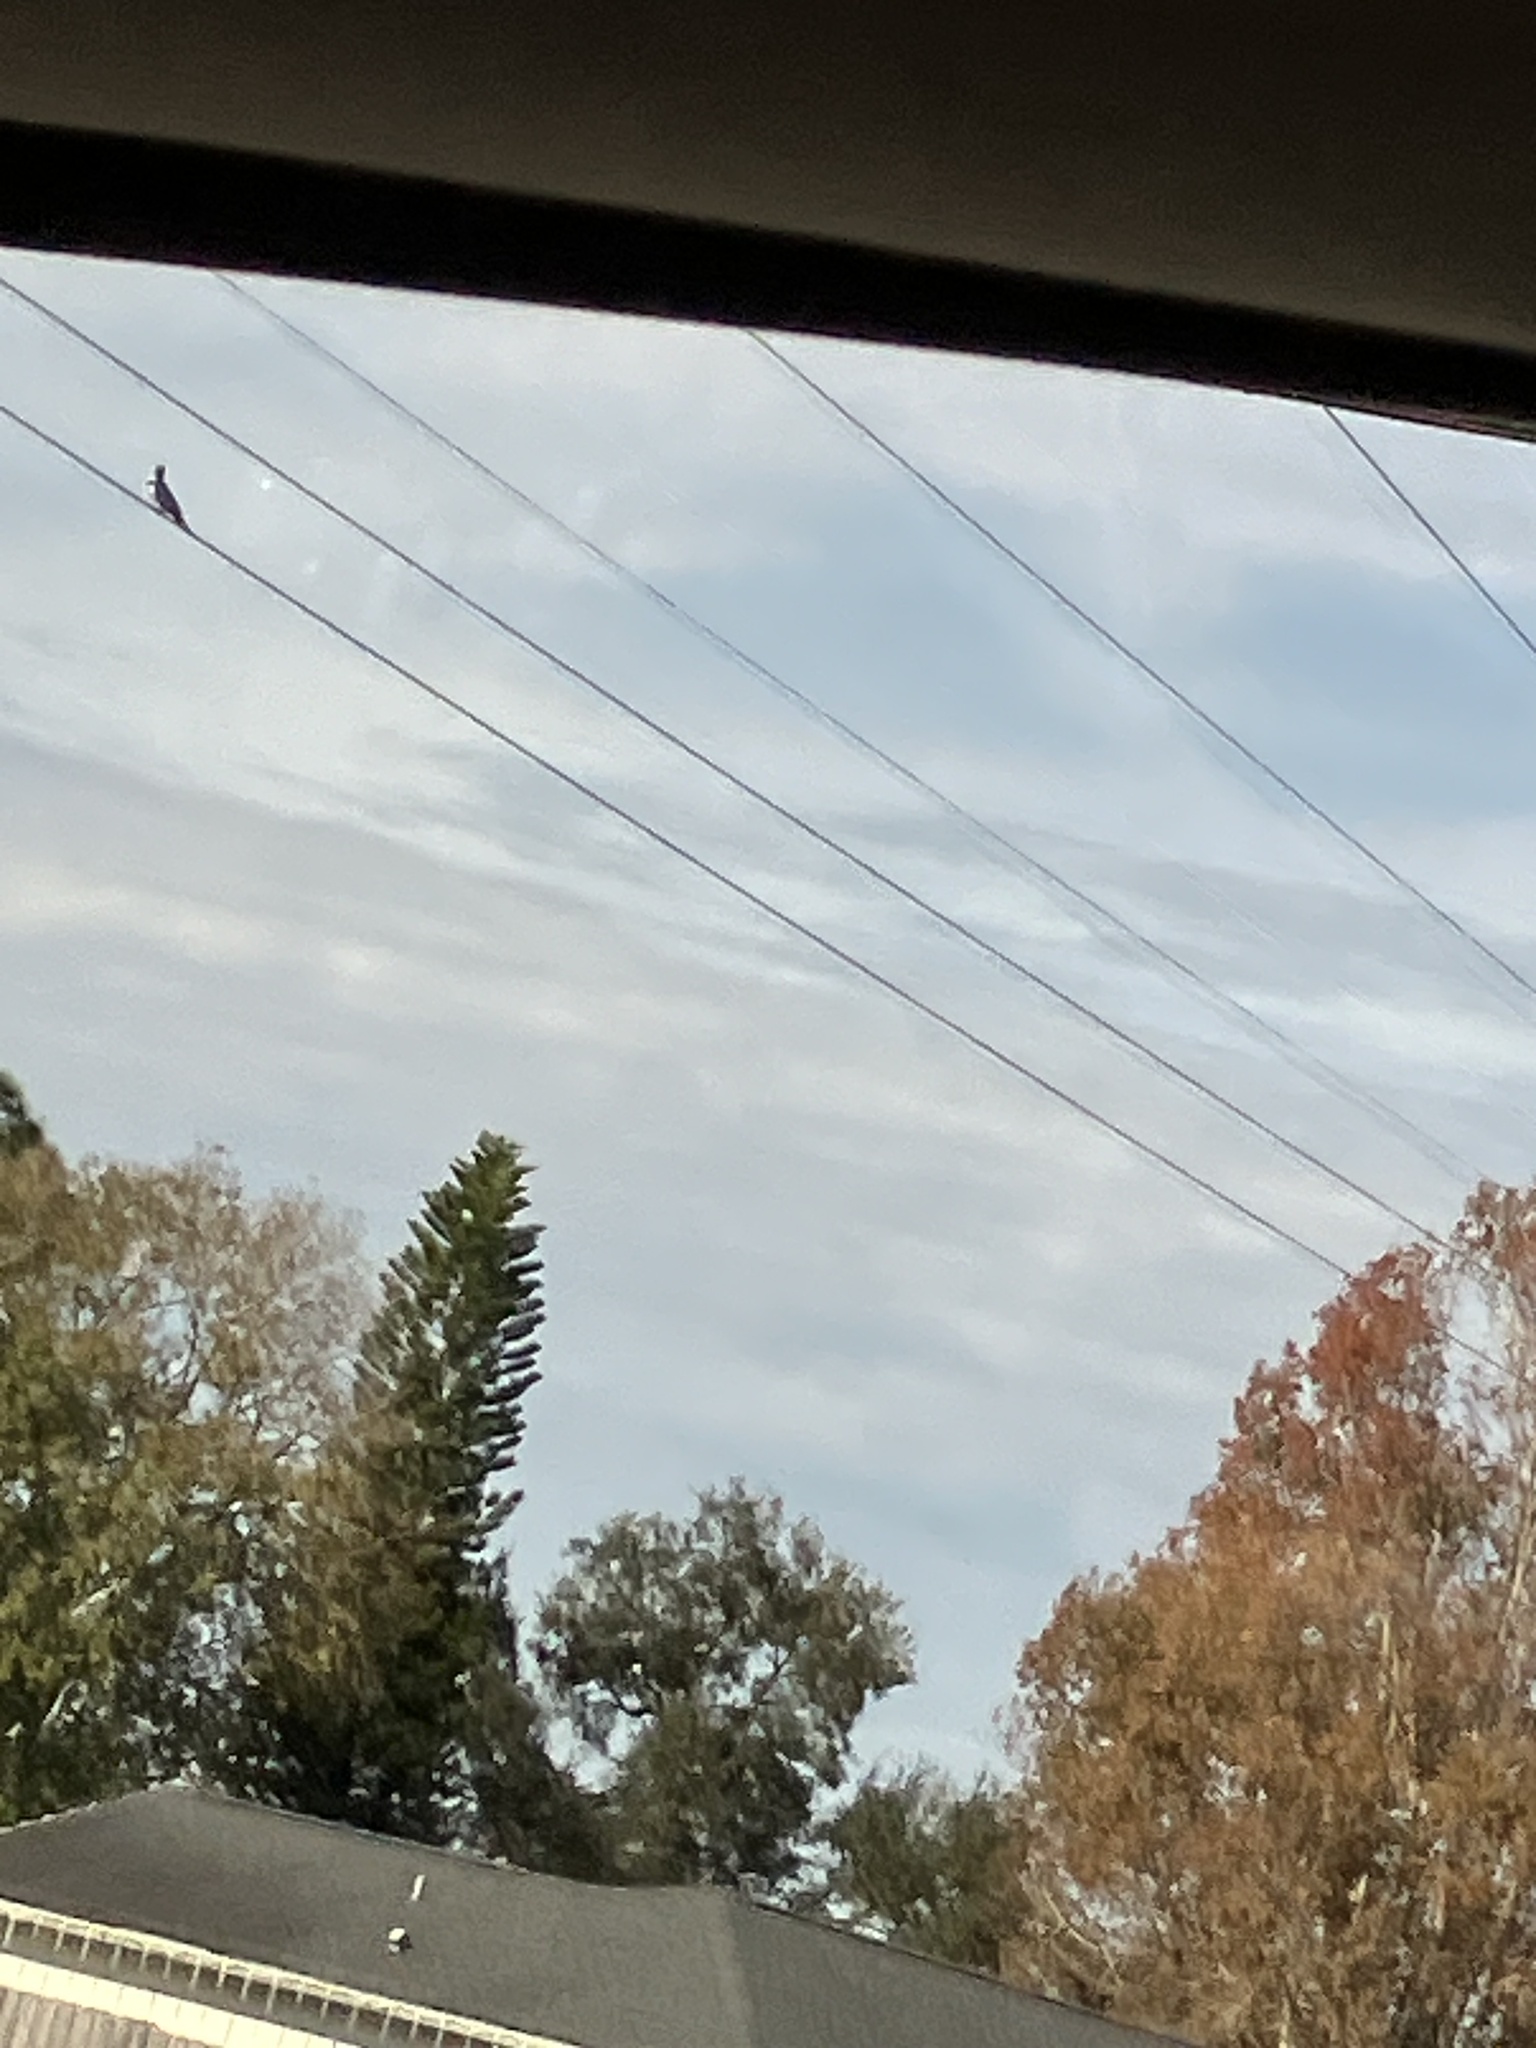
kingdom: Animalia
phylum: Chordata
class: Aves
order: Coraciiformes
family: Alcedinidae
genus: Megaceryle
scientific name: Megaceryle alcyon
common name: Belted kingfisher
